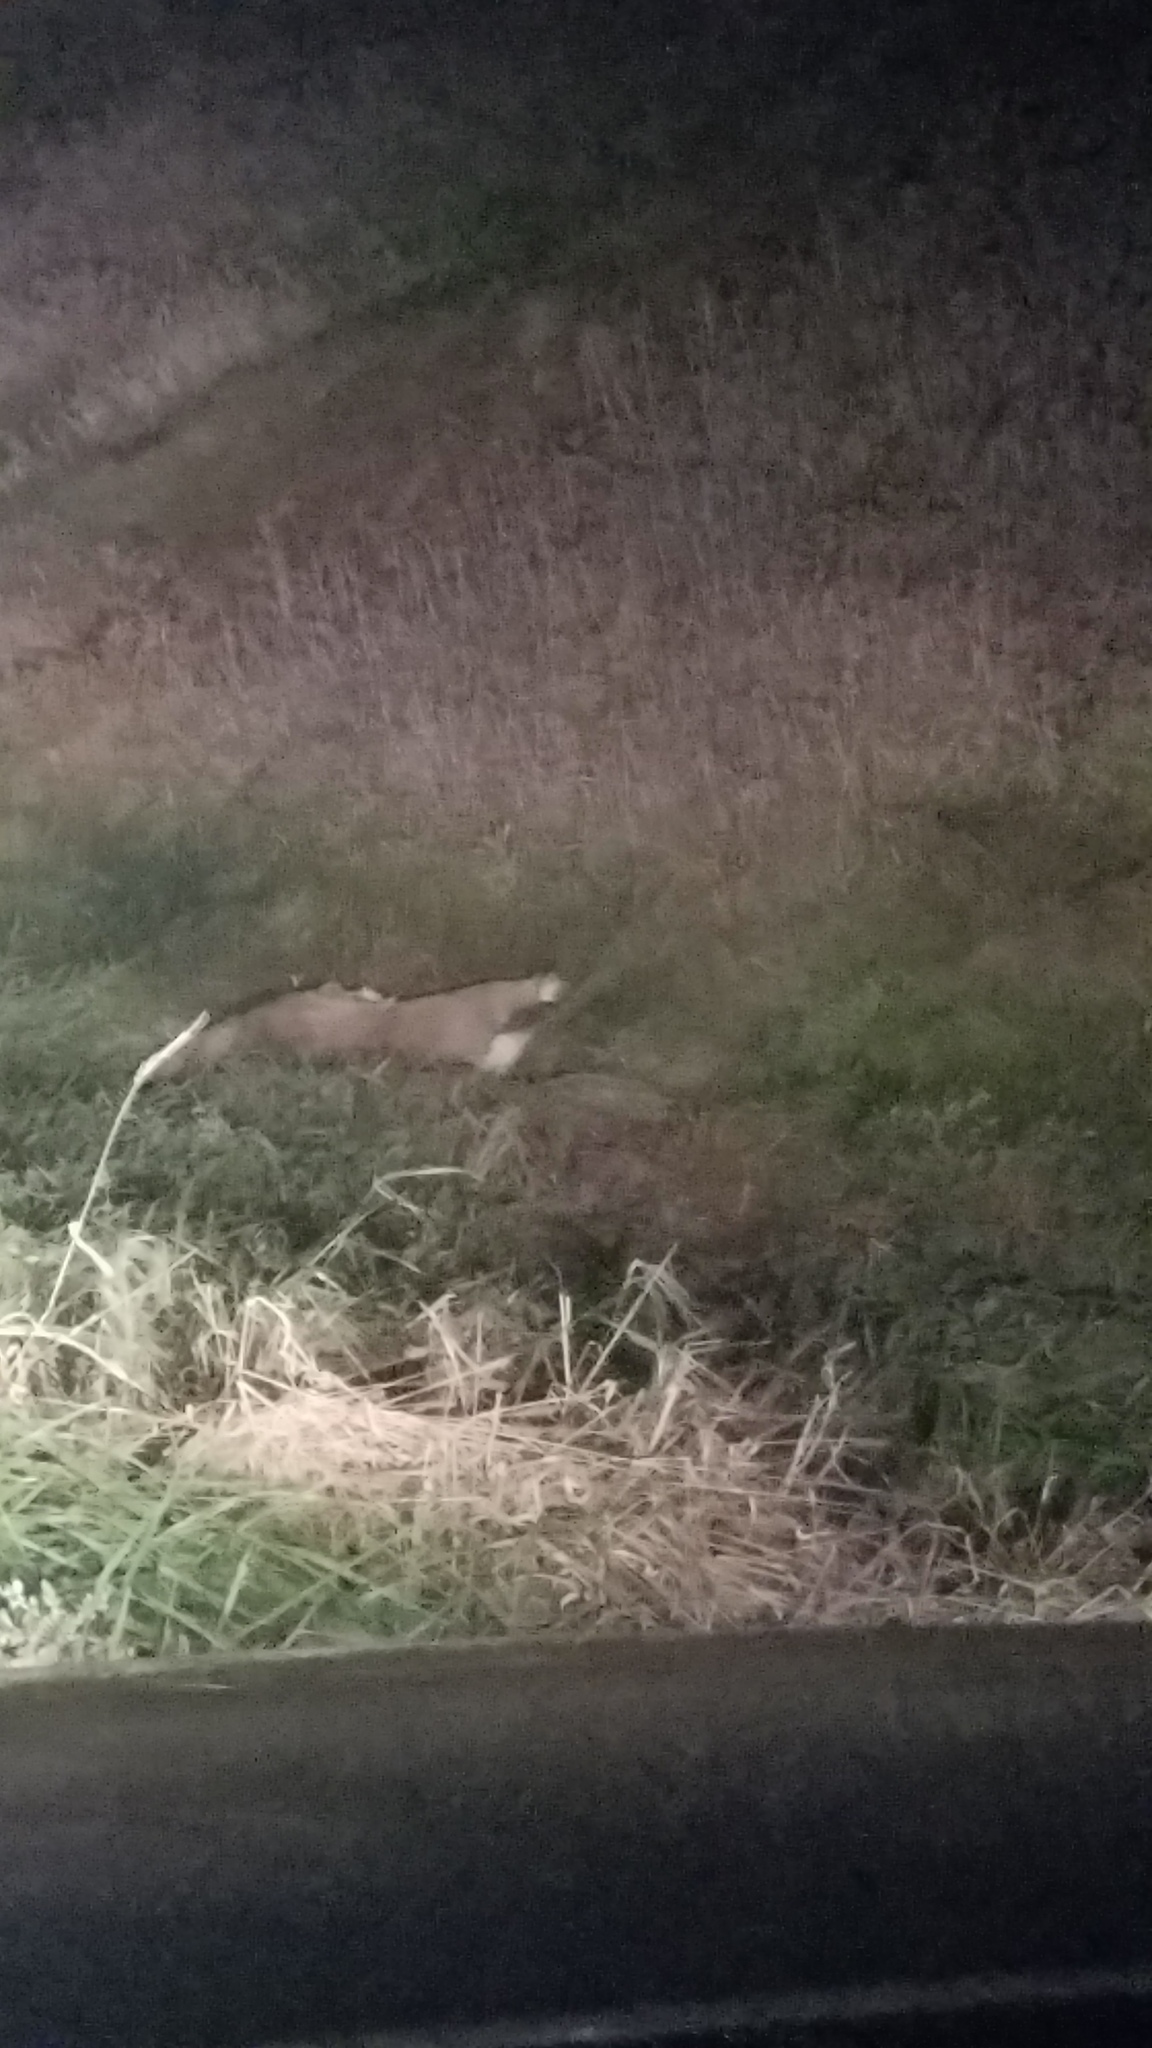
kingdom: Animalia
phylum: Chordata
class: Mammalia
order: Artiodactyla
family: Cervidae
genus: Odocoileus
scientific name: Odocoileus virginianus
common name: White-tailed deer
